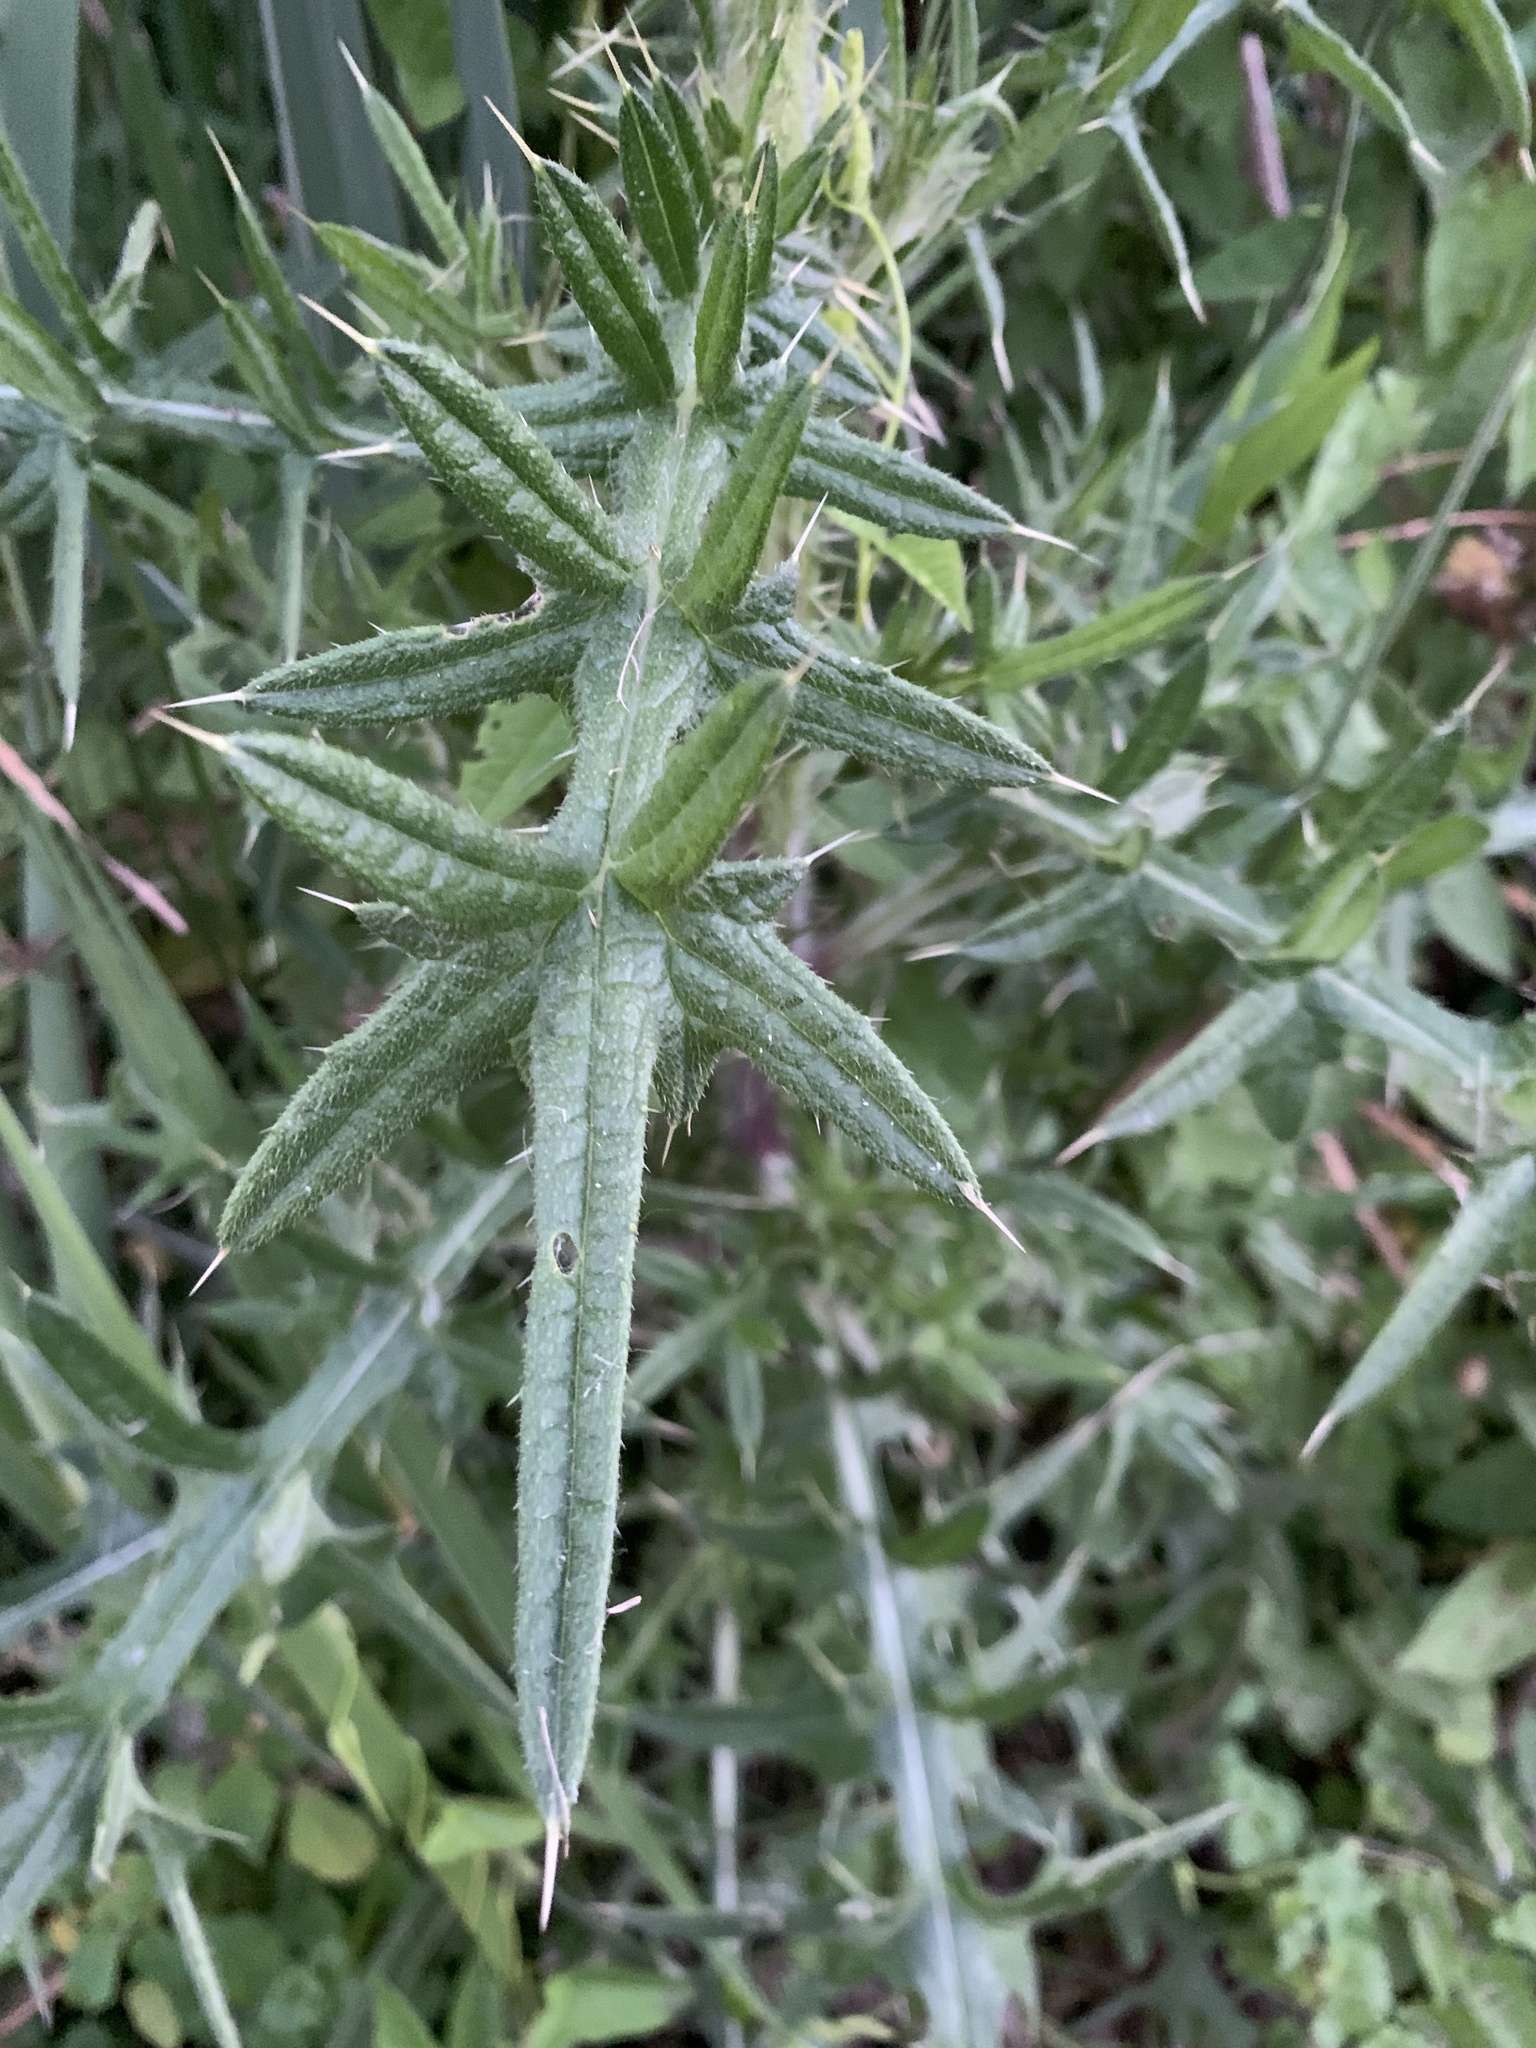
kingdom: Plantae
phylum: Tracheophyta
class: Magnoliopsida
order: Asterales
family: Asteraceae
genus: Cirsium
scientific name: Cirsium vulgare
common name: Bull thistle
